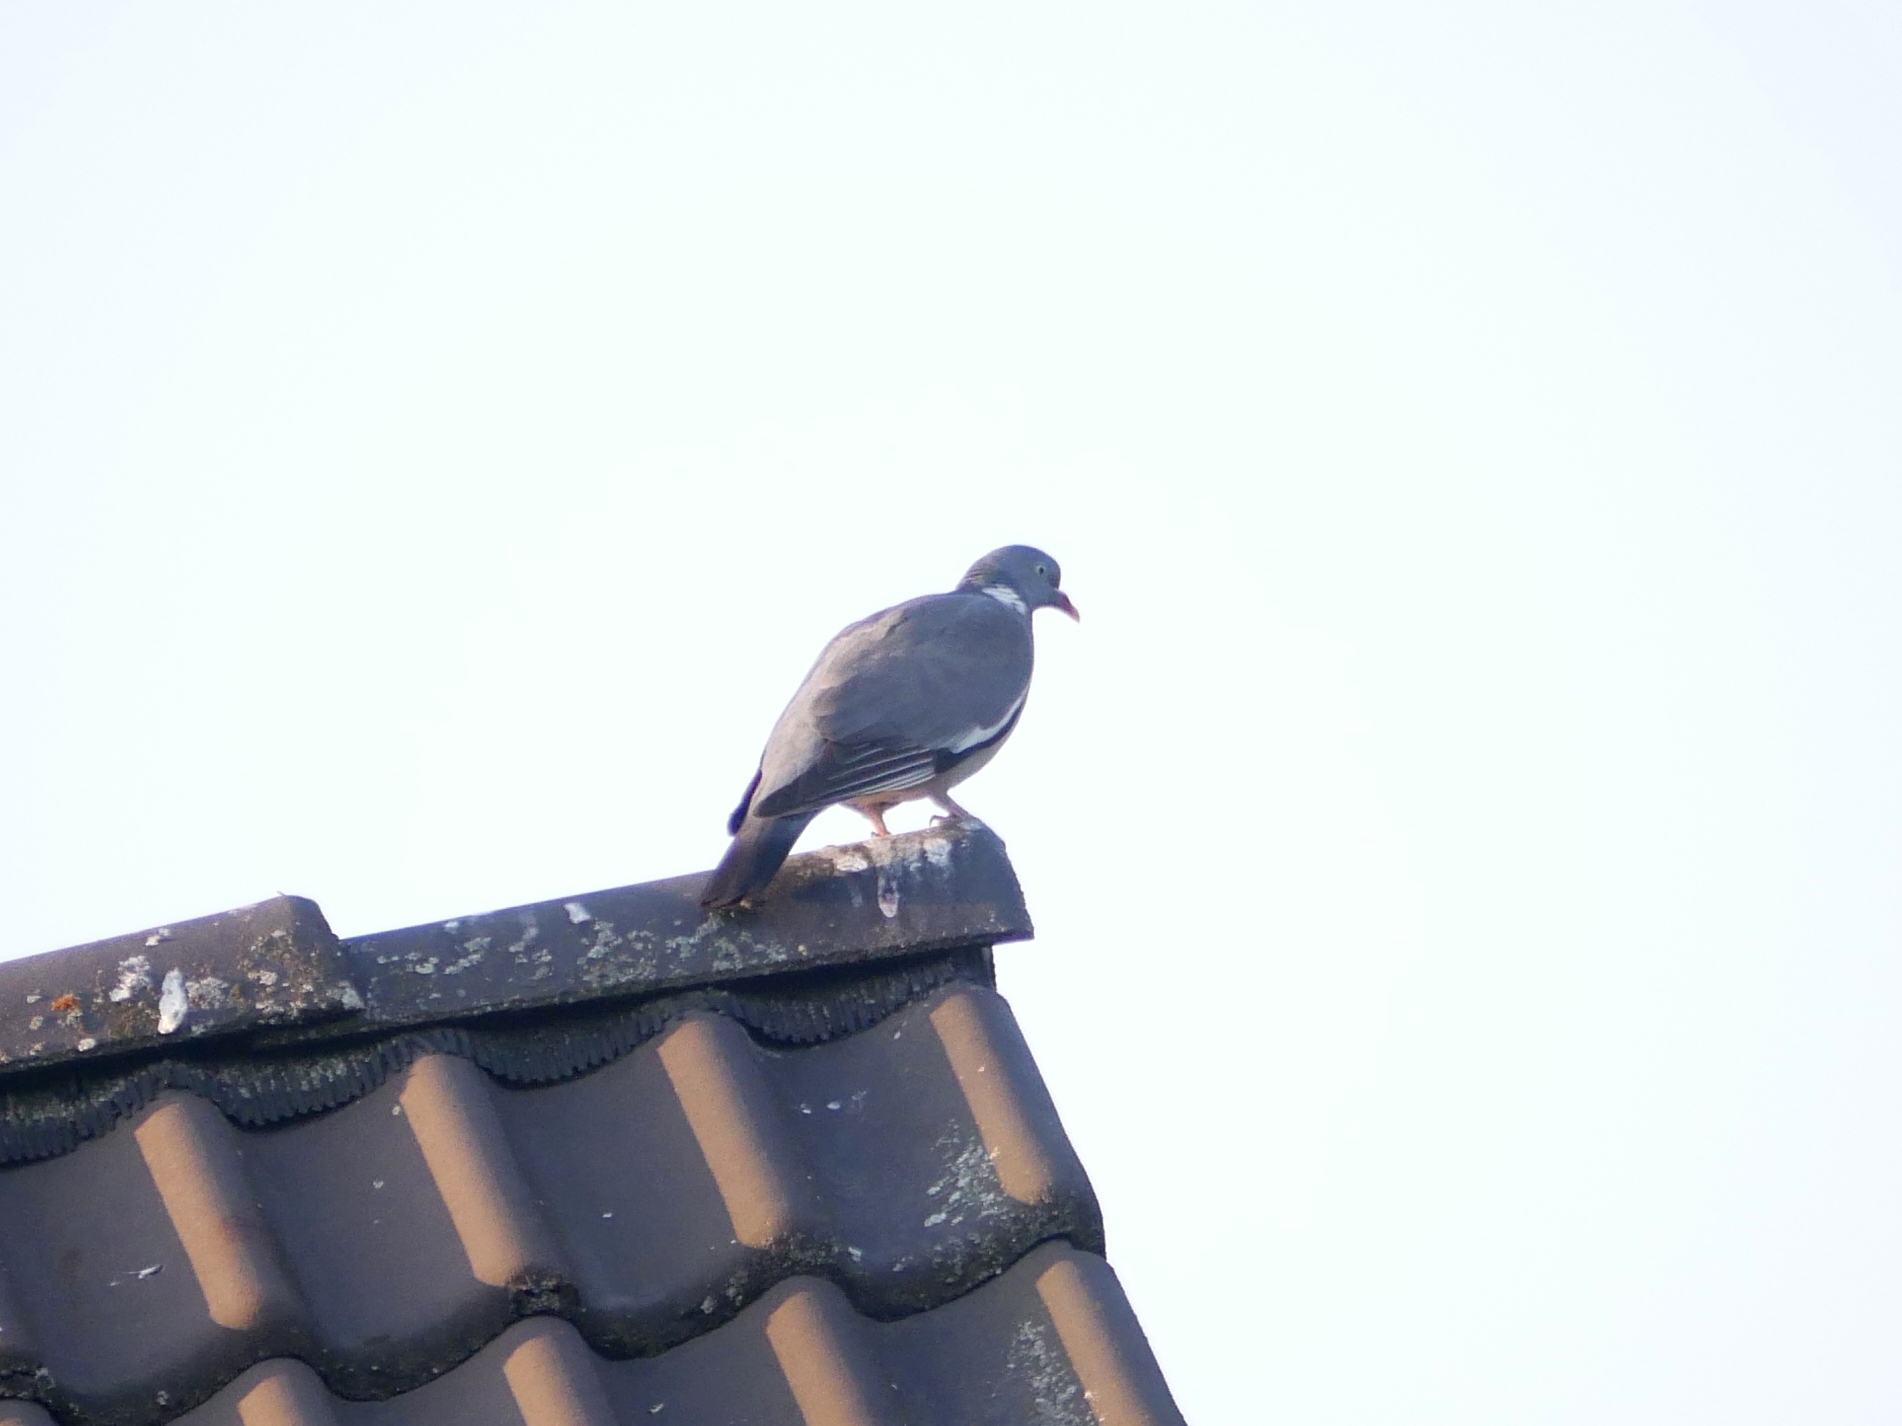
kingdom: Animalia
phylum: Chordata
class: Aves
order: Columbiformes
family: Columbidae
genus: Columba
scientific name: Columba palumbus
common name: Common wood pigeon
